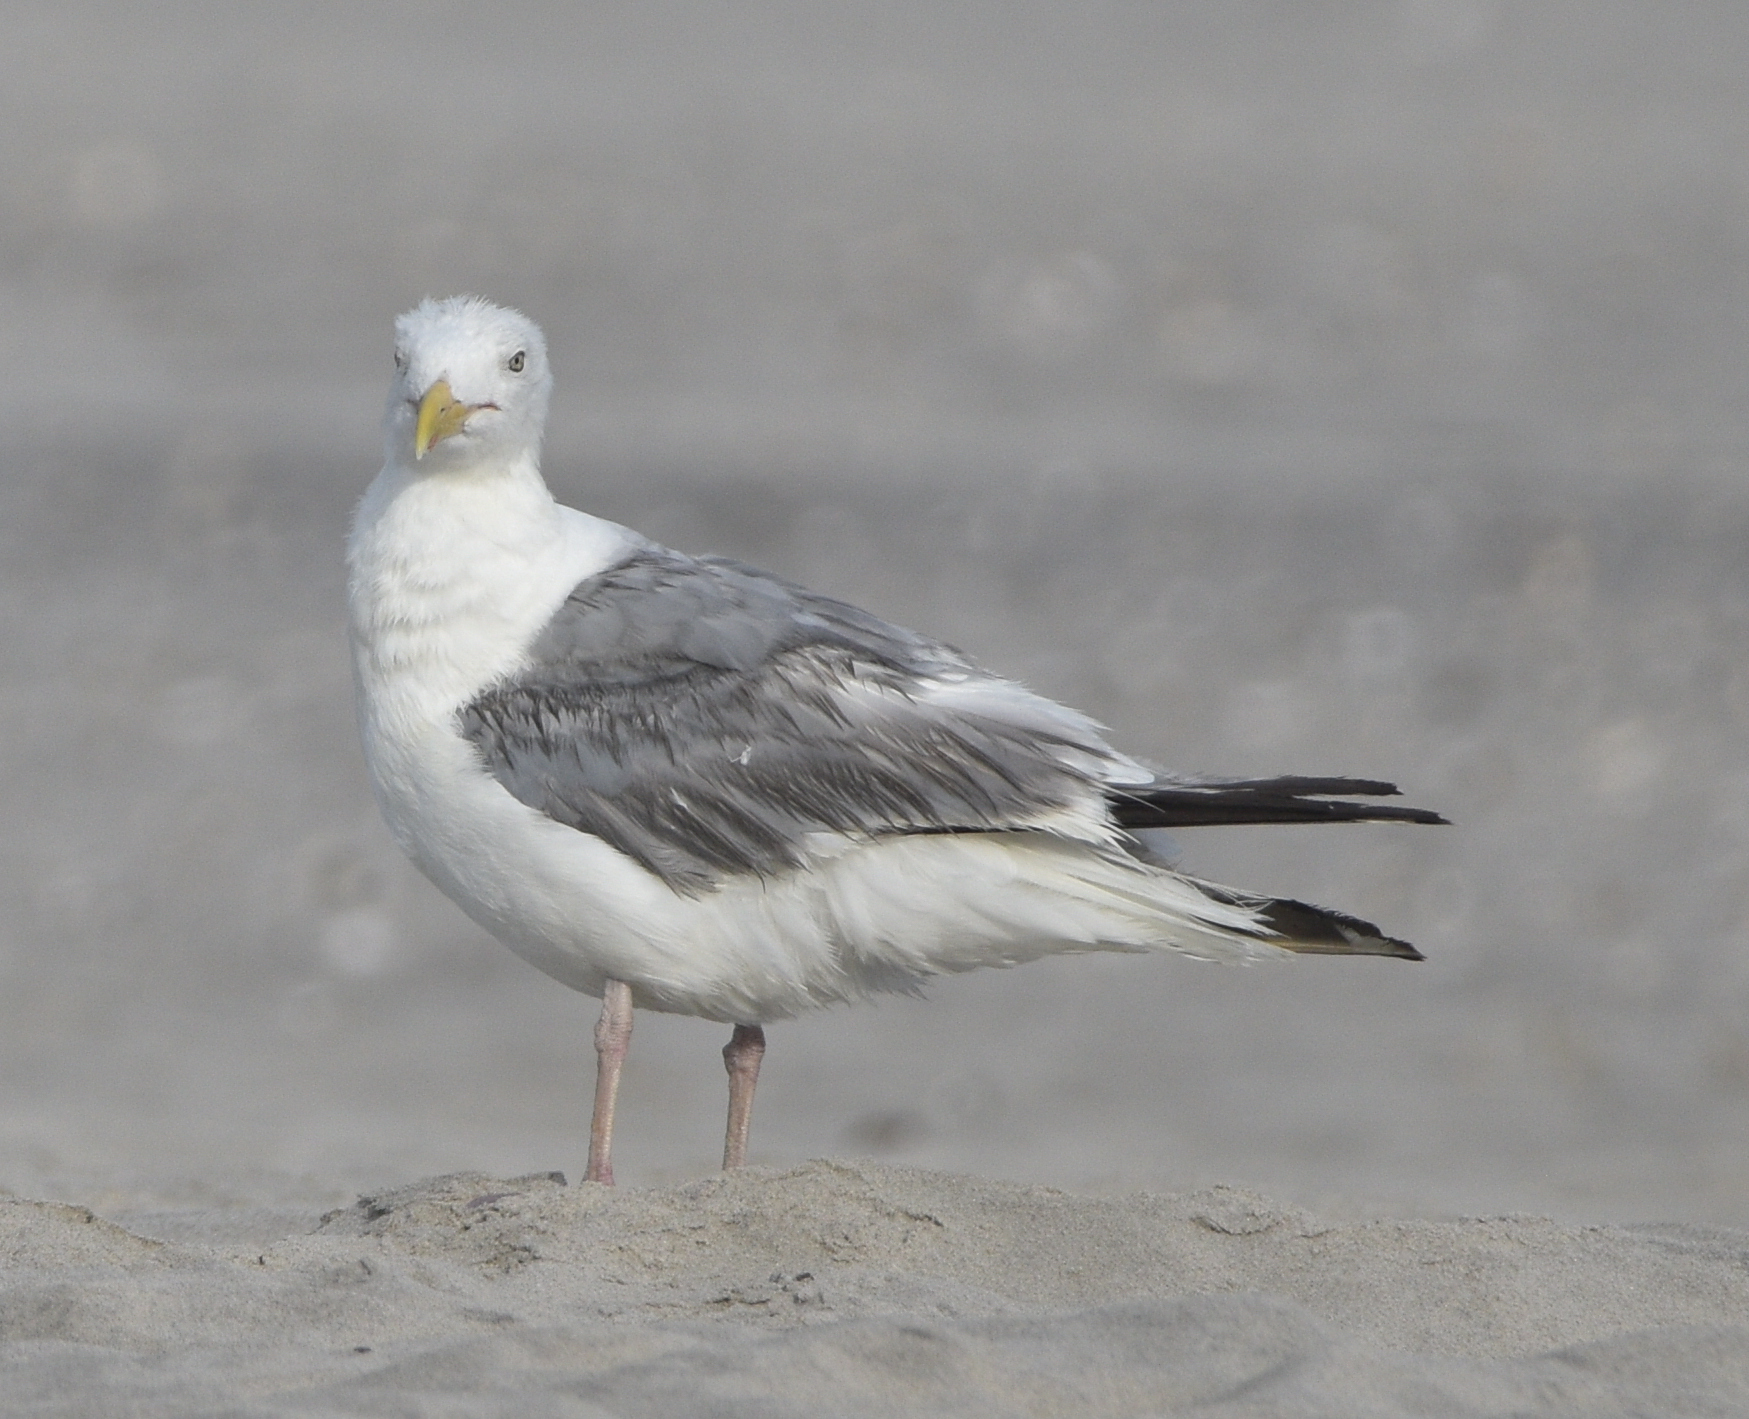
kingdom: Animalia
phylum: Chordata
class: Aves
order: Charadriiformes
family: Laridae
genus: Larus
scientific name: Larus argentatus
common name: Herring gull
